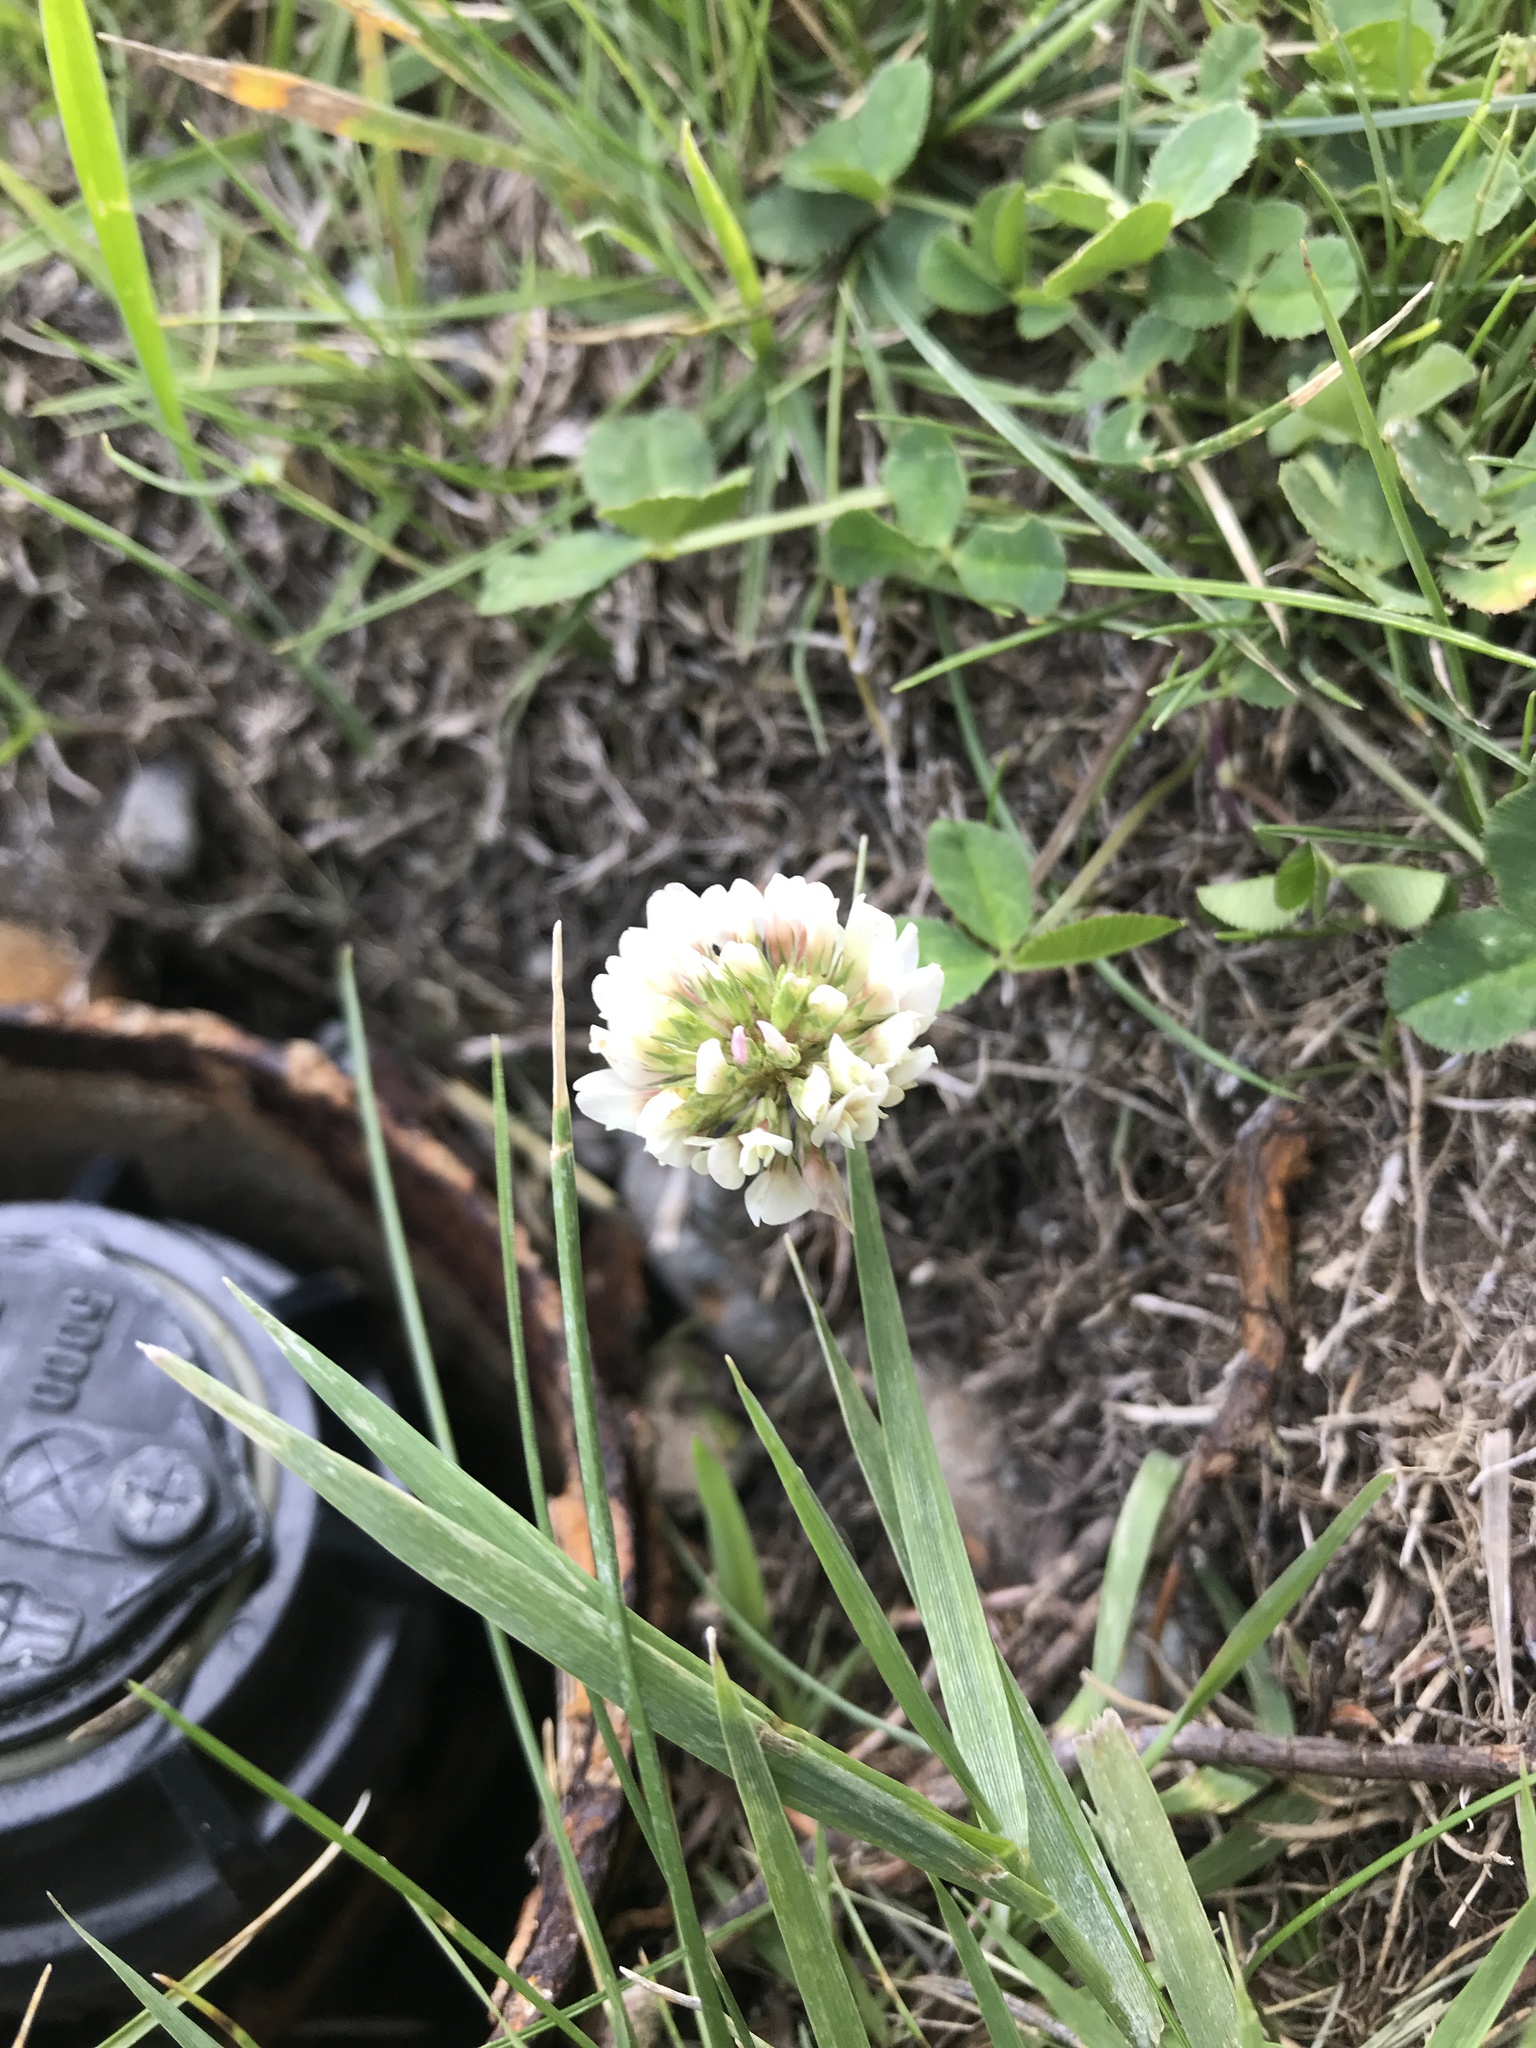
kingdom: Plantae
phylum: Tracheophyta
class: Magnoliopsida
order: Fabales
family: Fabaceae
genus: Trifolium
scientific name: Trifolium repens
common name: White clover
